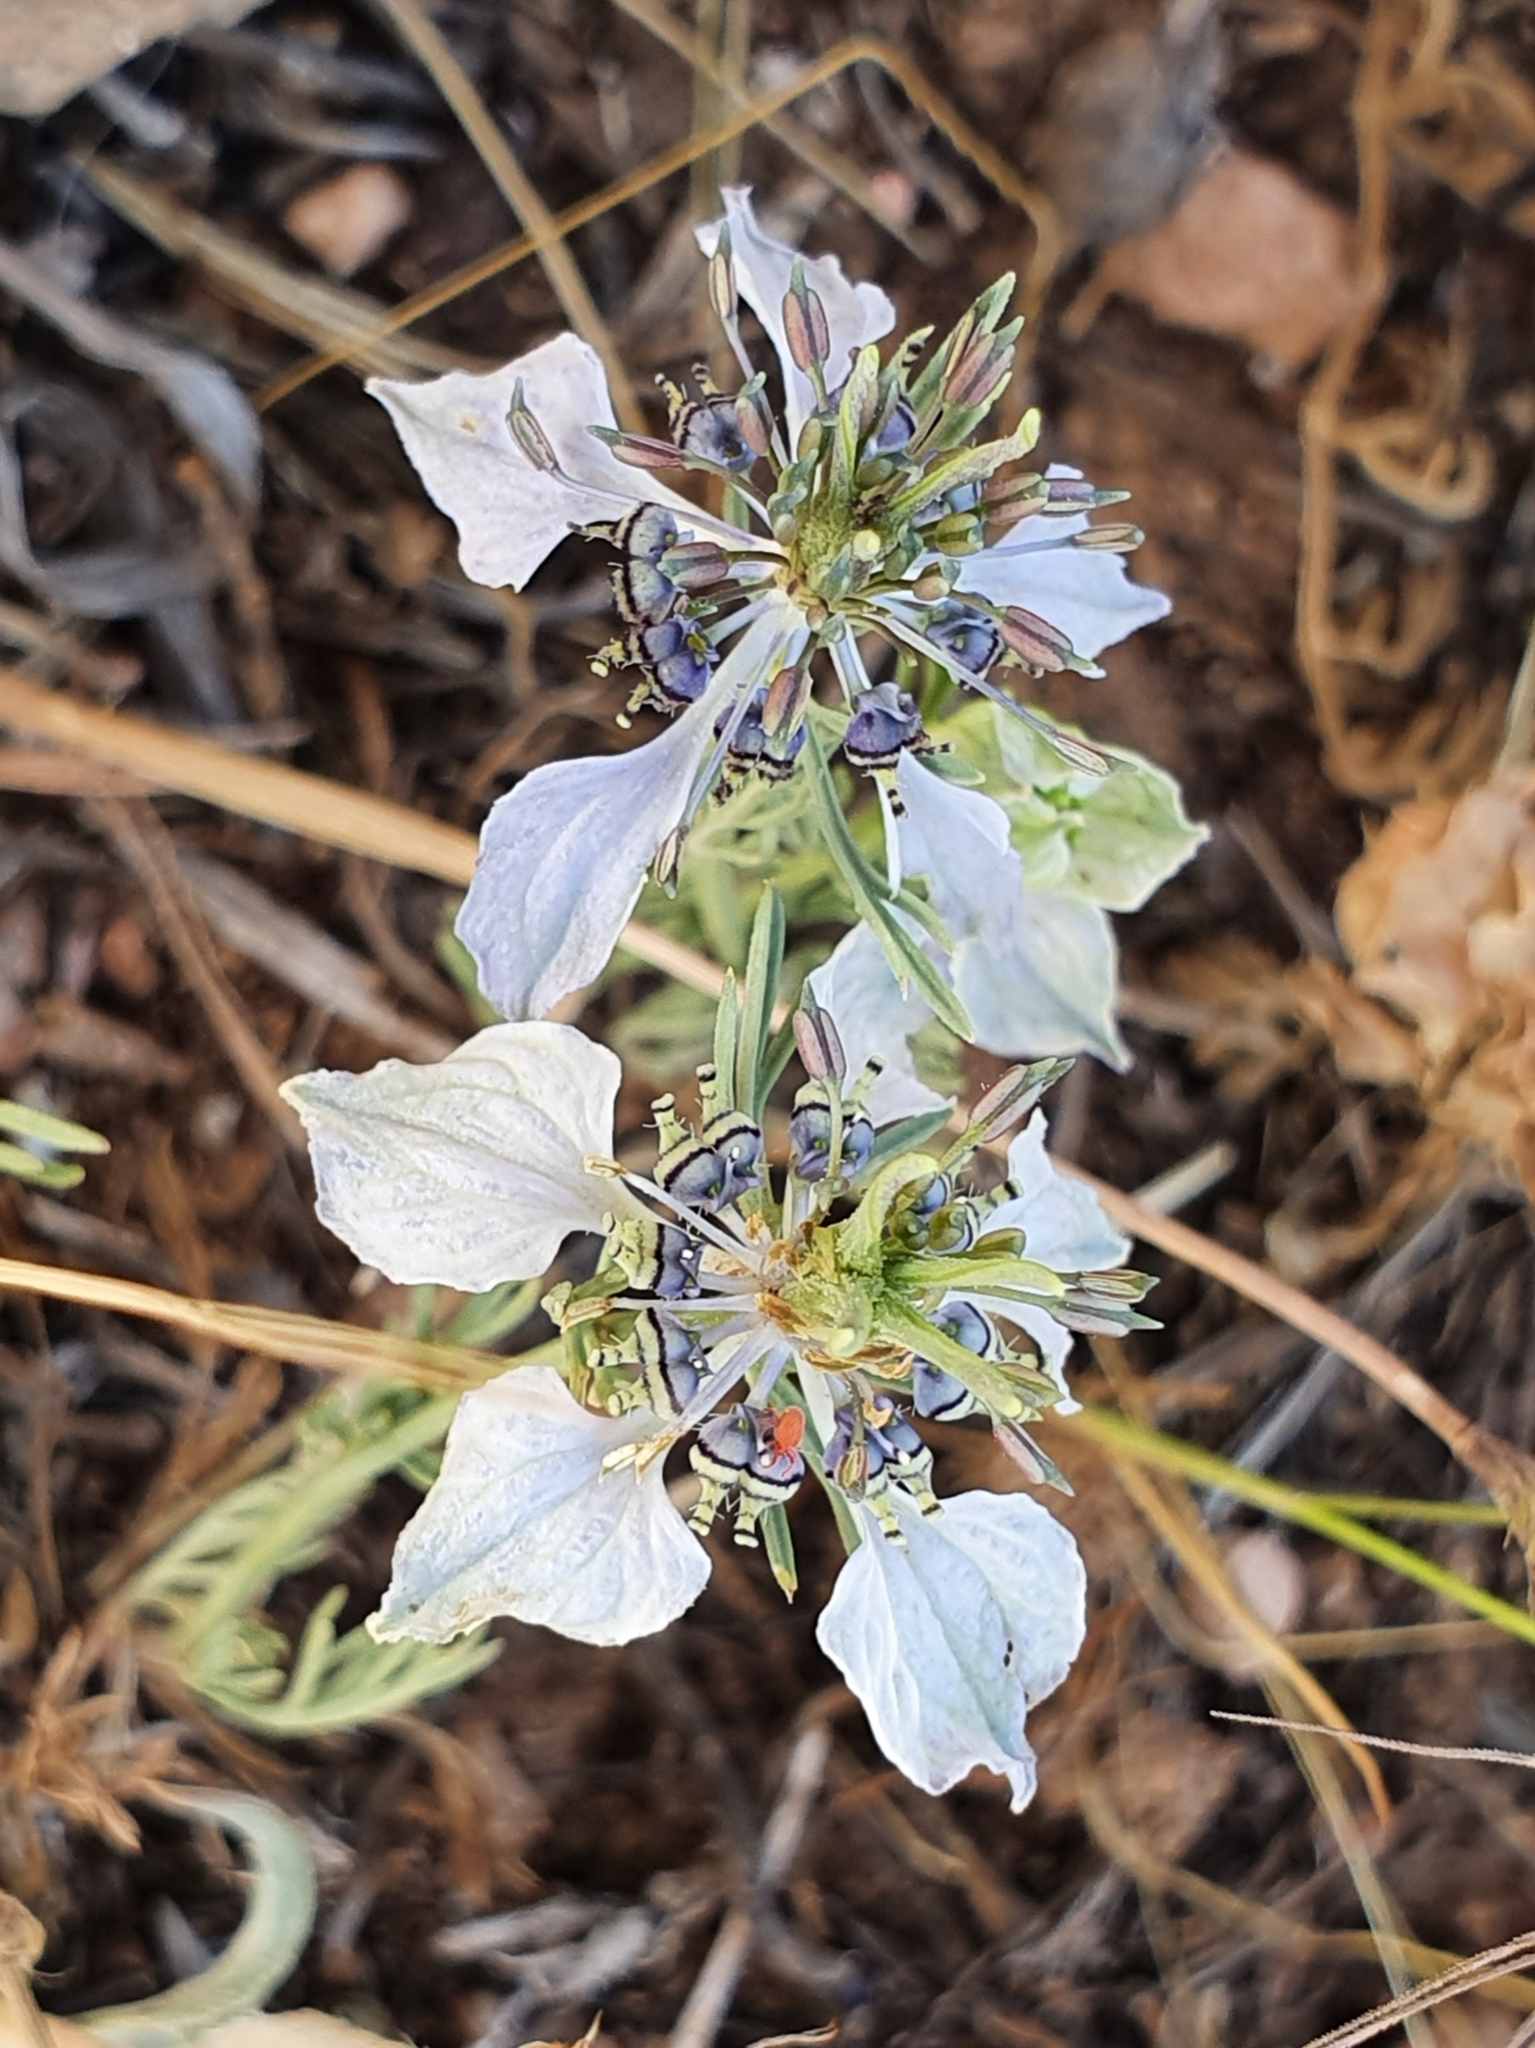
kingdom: Plantae
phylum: Tracheophyta
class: Magnoliopsida
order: Ranunculales
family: Ranunculaceae
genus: Nigella
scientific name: Nigella arvensis
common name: Wild fennel-flower
